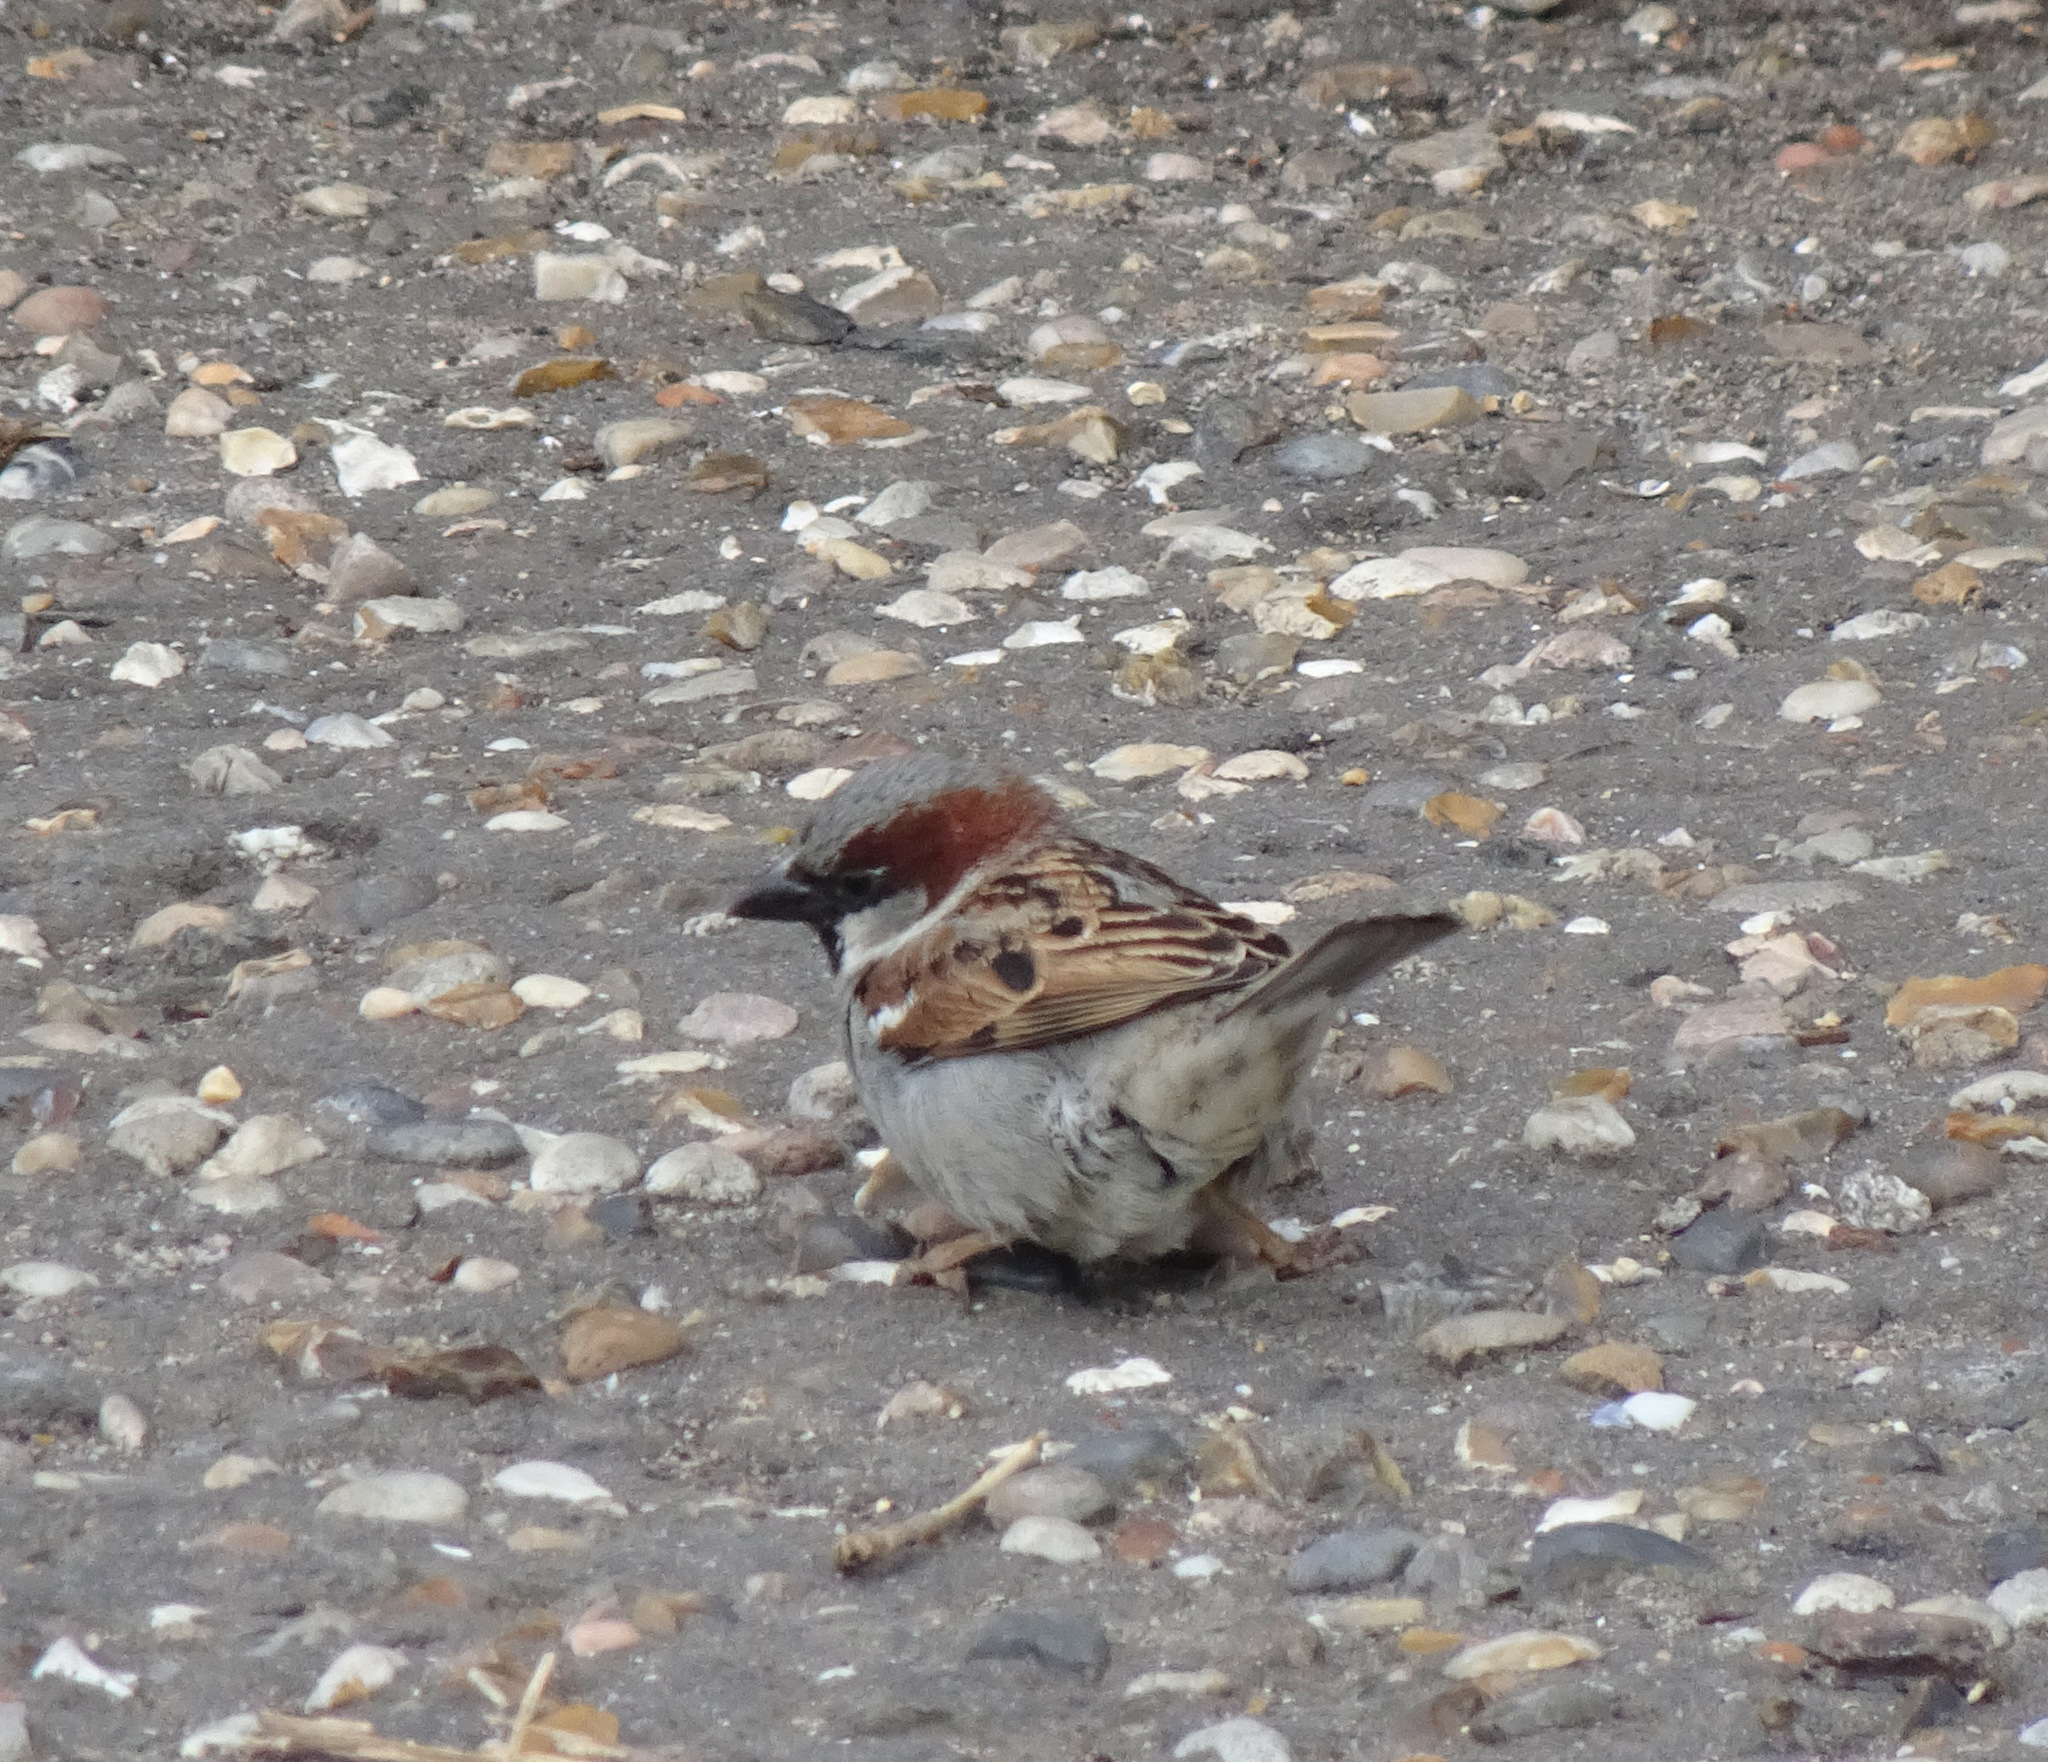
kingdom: Animalia
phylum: Chordata
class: Aves
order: Passeriformes
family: Passeridae
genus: Passer
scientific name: Passer domesticus
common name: House sparrow
